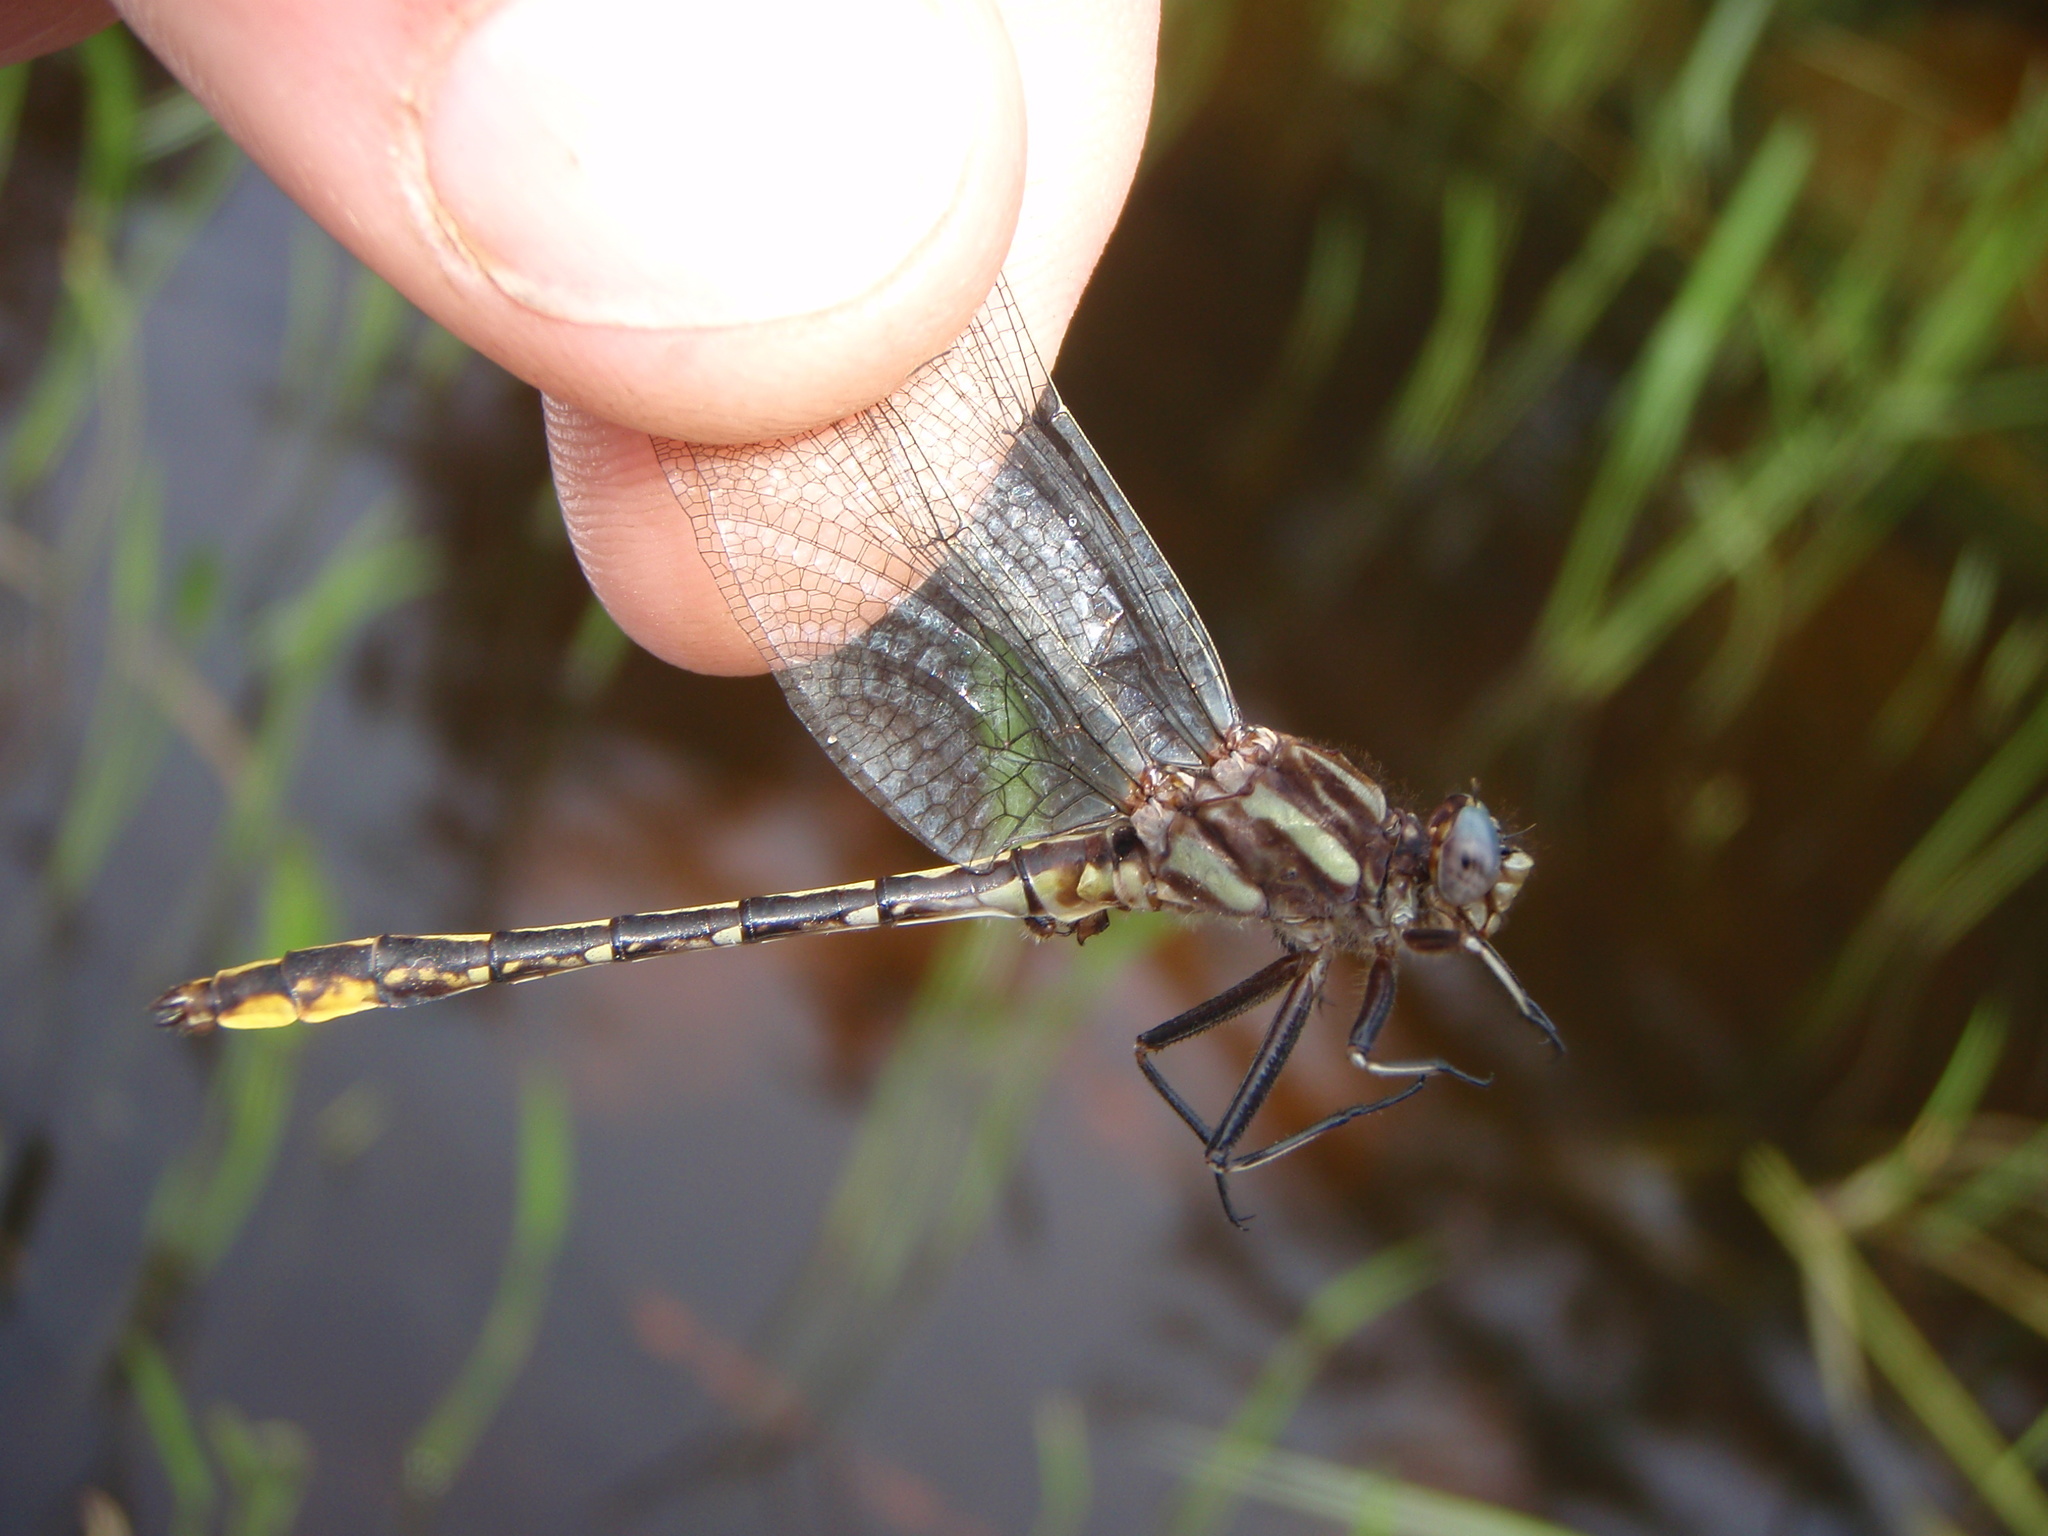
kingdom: Animalia
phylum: Arthropoda
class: Insecta
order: Odonata
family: Gomphidae
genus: Phanogomphus
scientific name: Phanogomphus exilis
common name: Lancet clubtail
